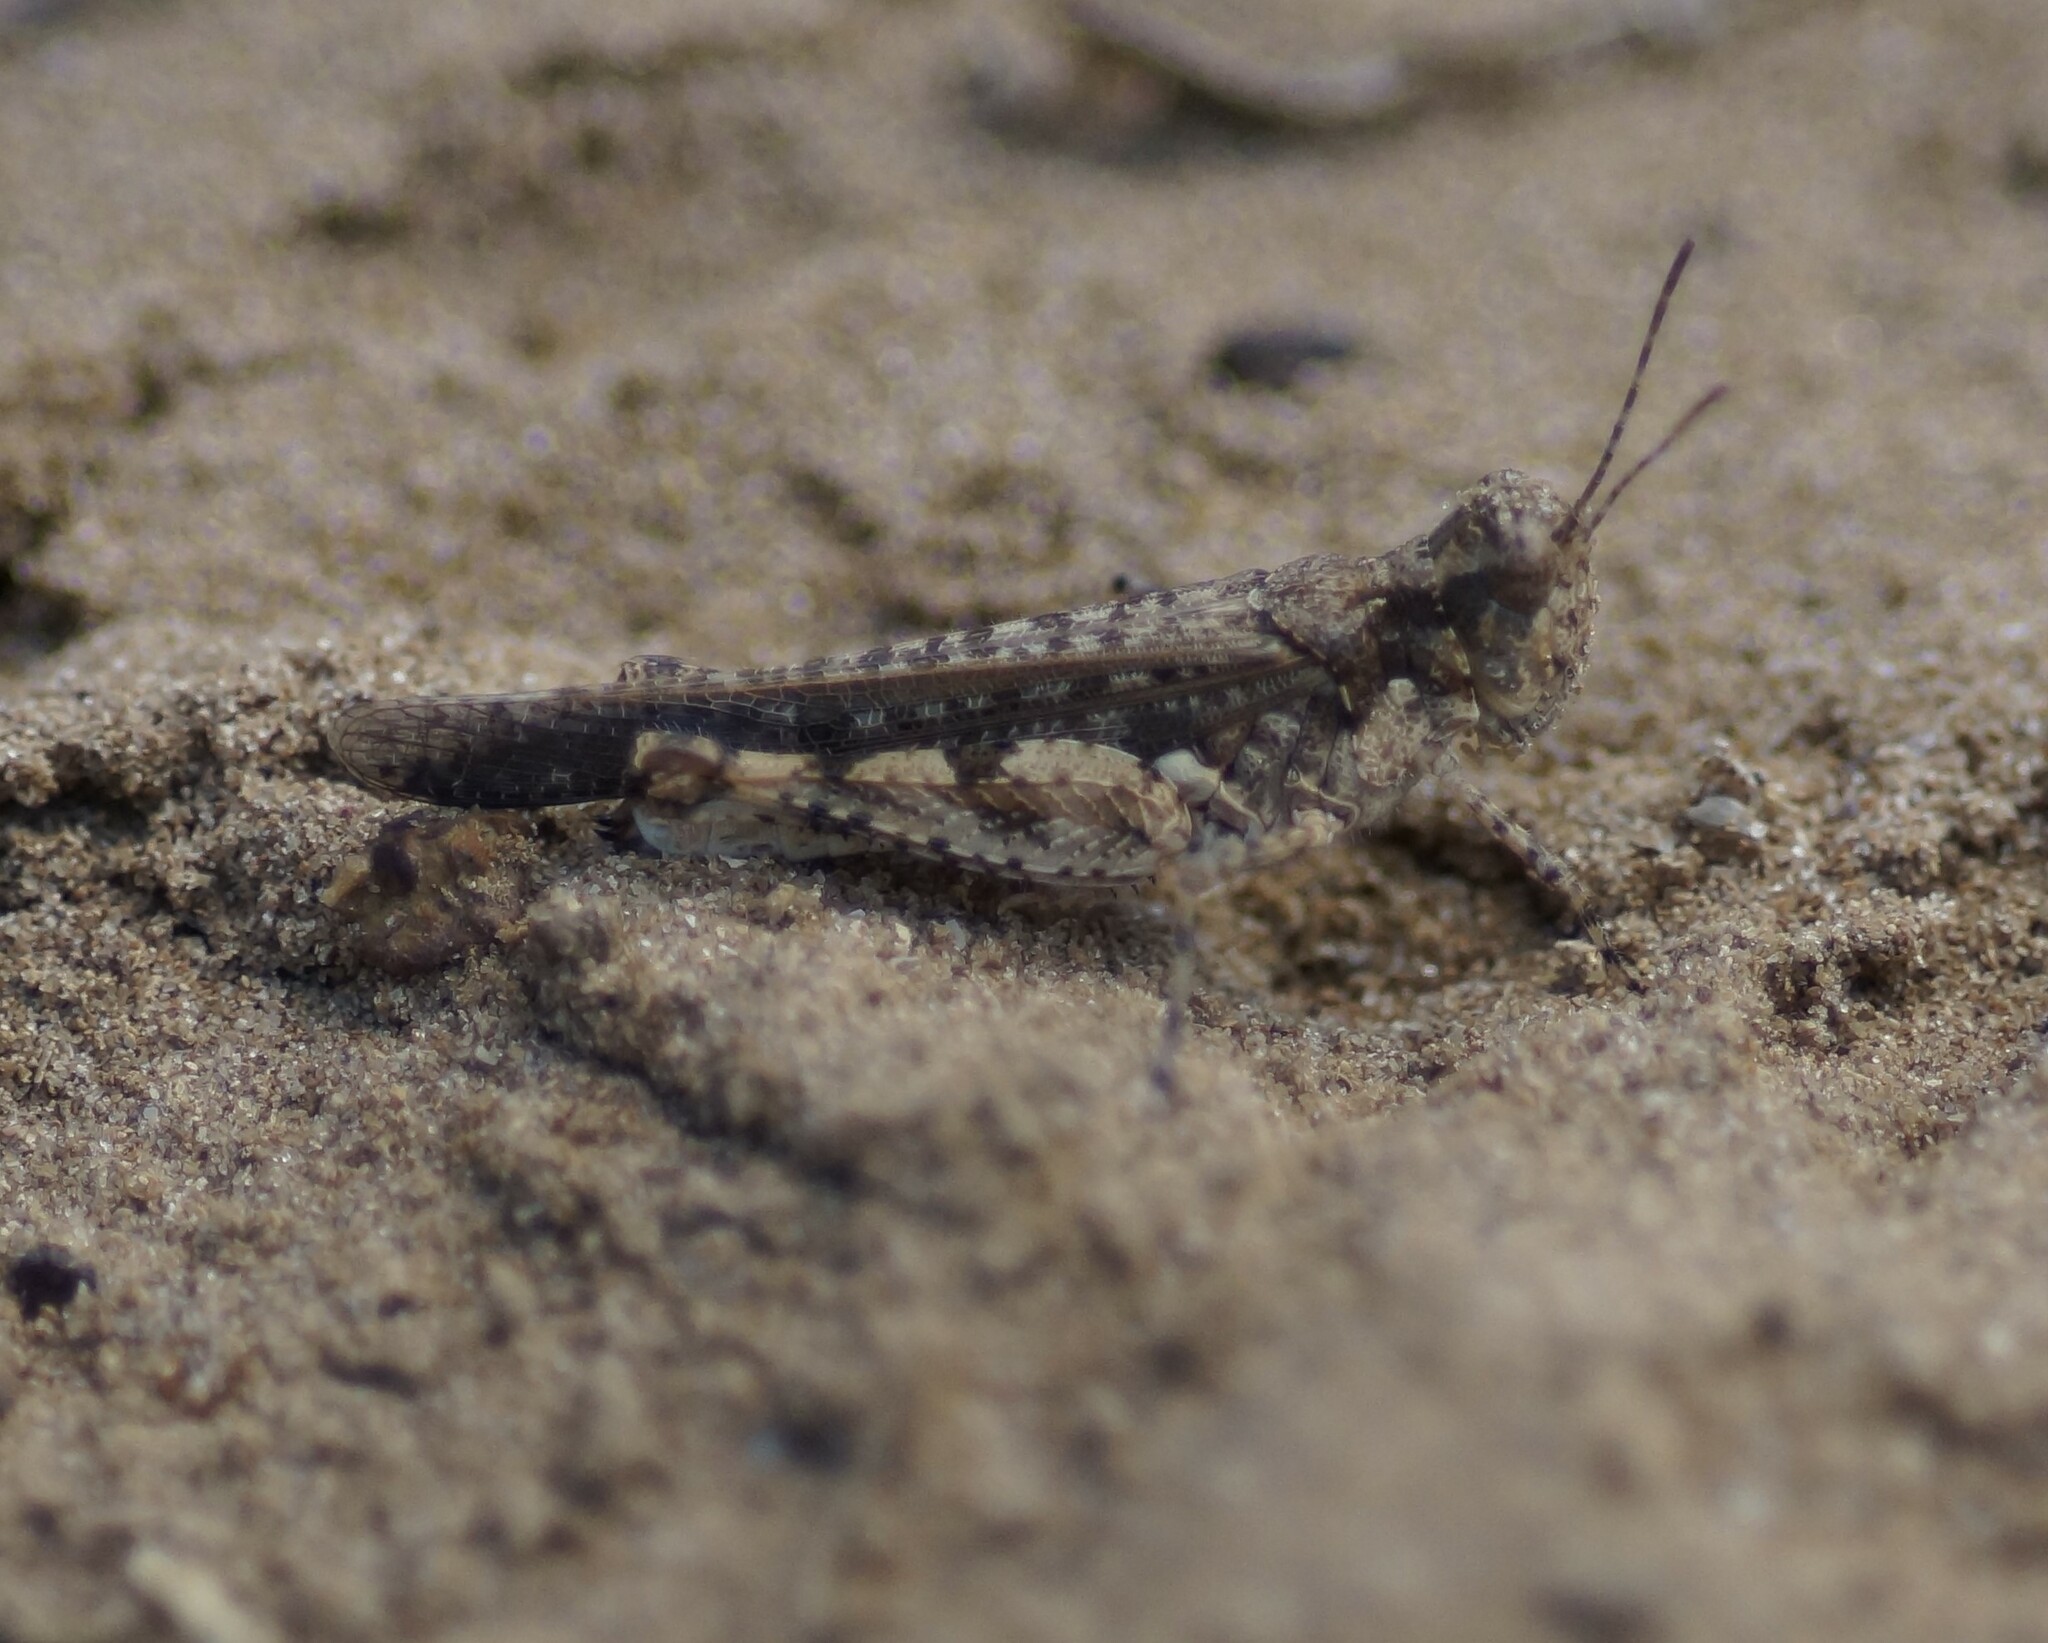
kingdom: Animalia
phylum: Arthropoda
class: Insecta
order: Orthoptera
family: Acrididae
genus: Pycnostictus
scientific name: Pycnostictus seriatus
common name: Common bandwing
